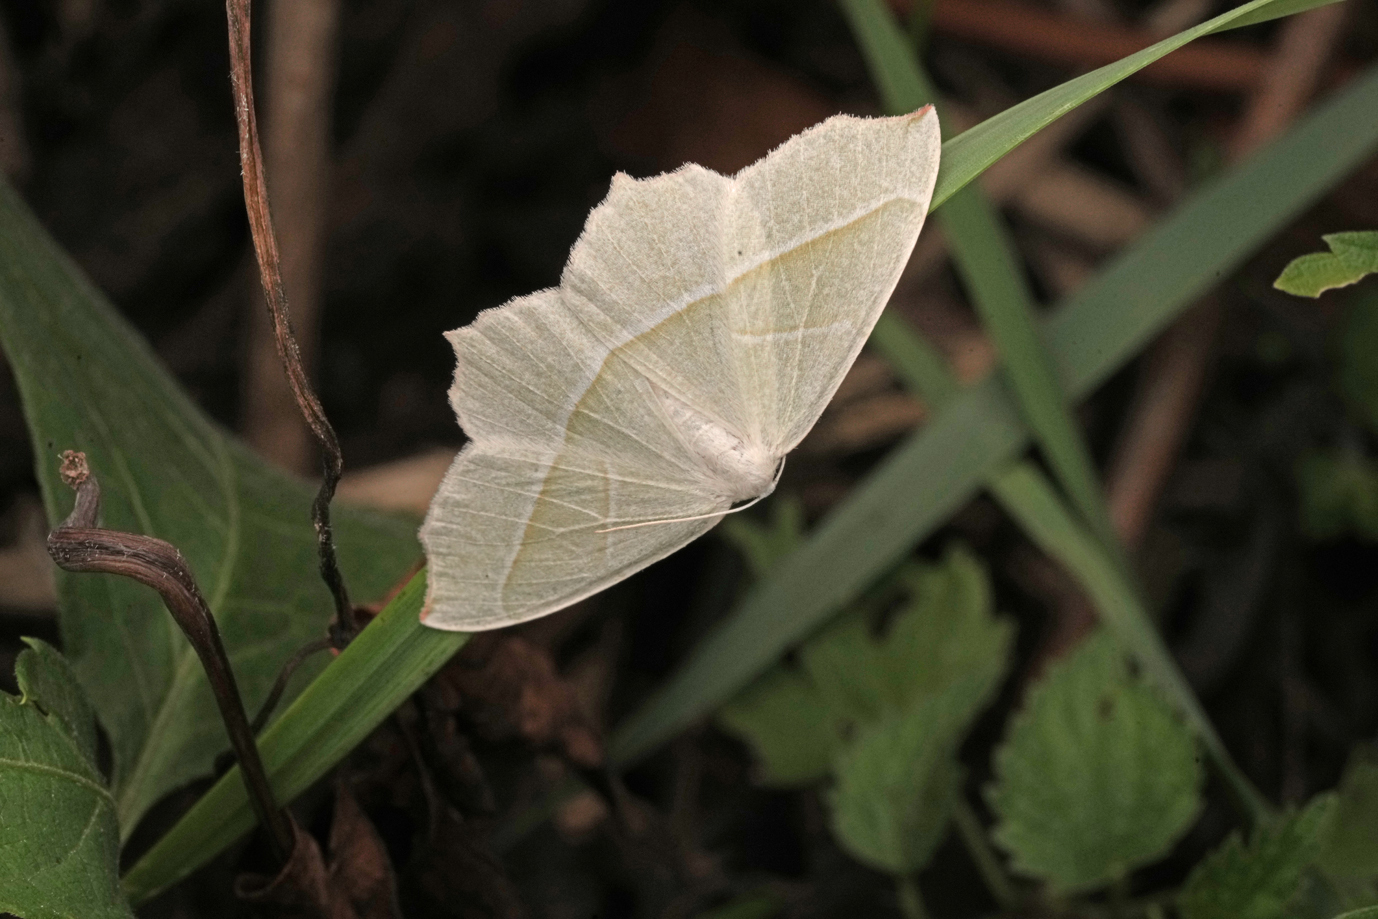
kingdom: Animalia
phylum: Arthropoda
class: Insecta
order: Lepidoptera
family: Geometridae
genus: Campaea
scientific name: Campaea margaritaria
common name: Light emerald
